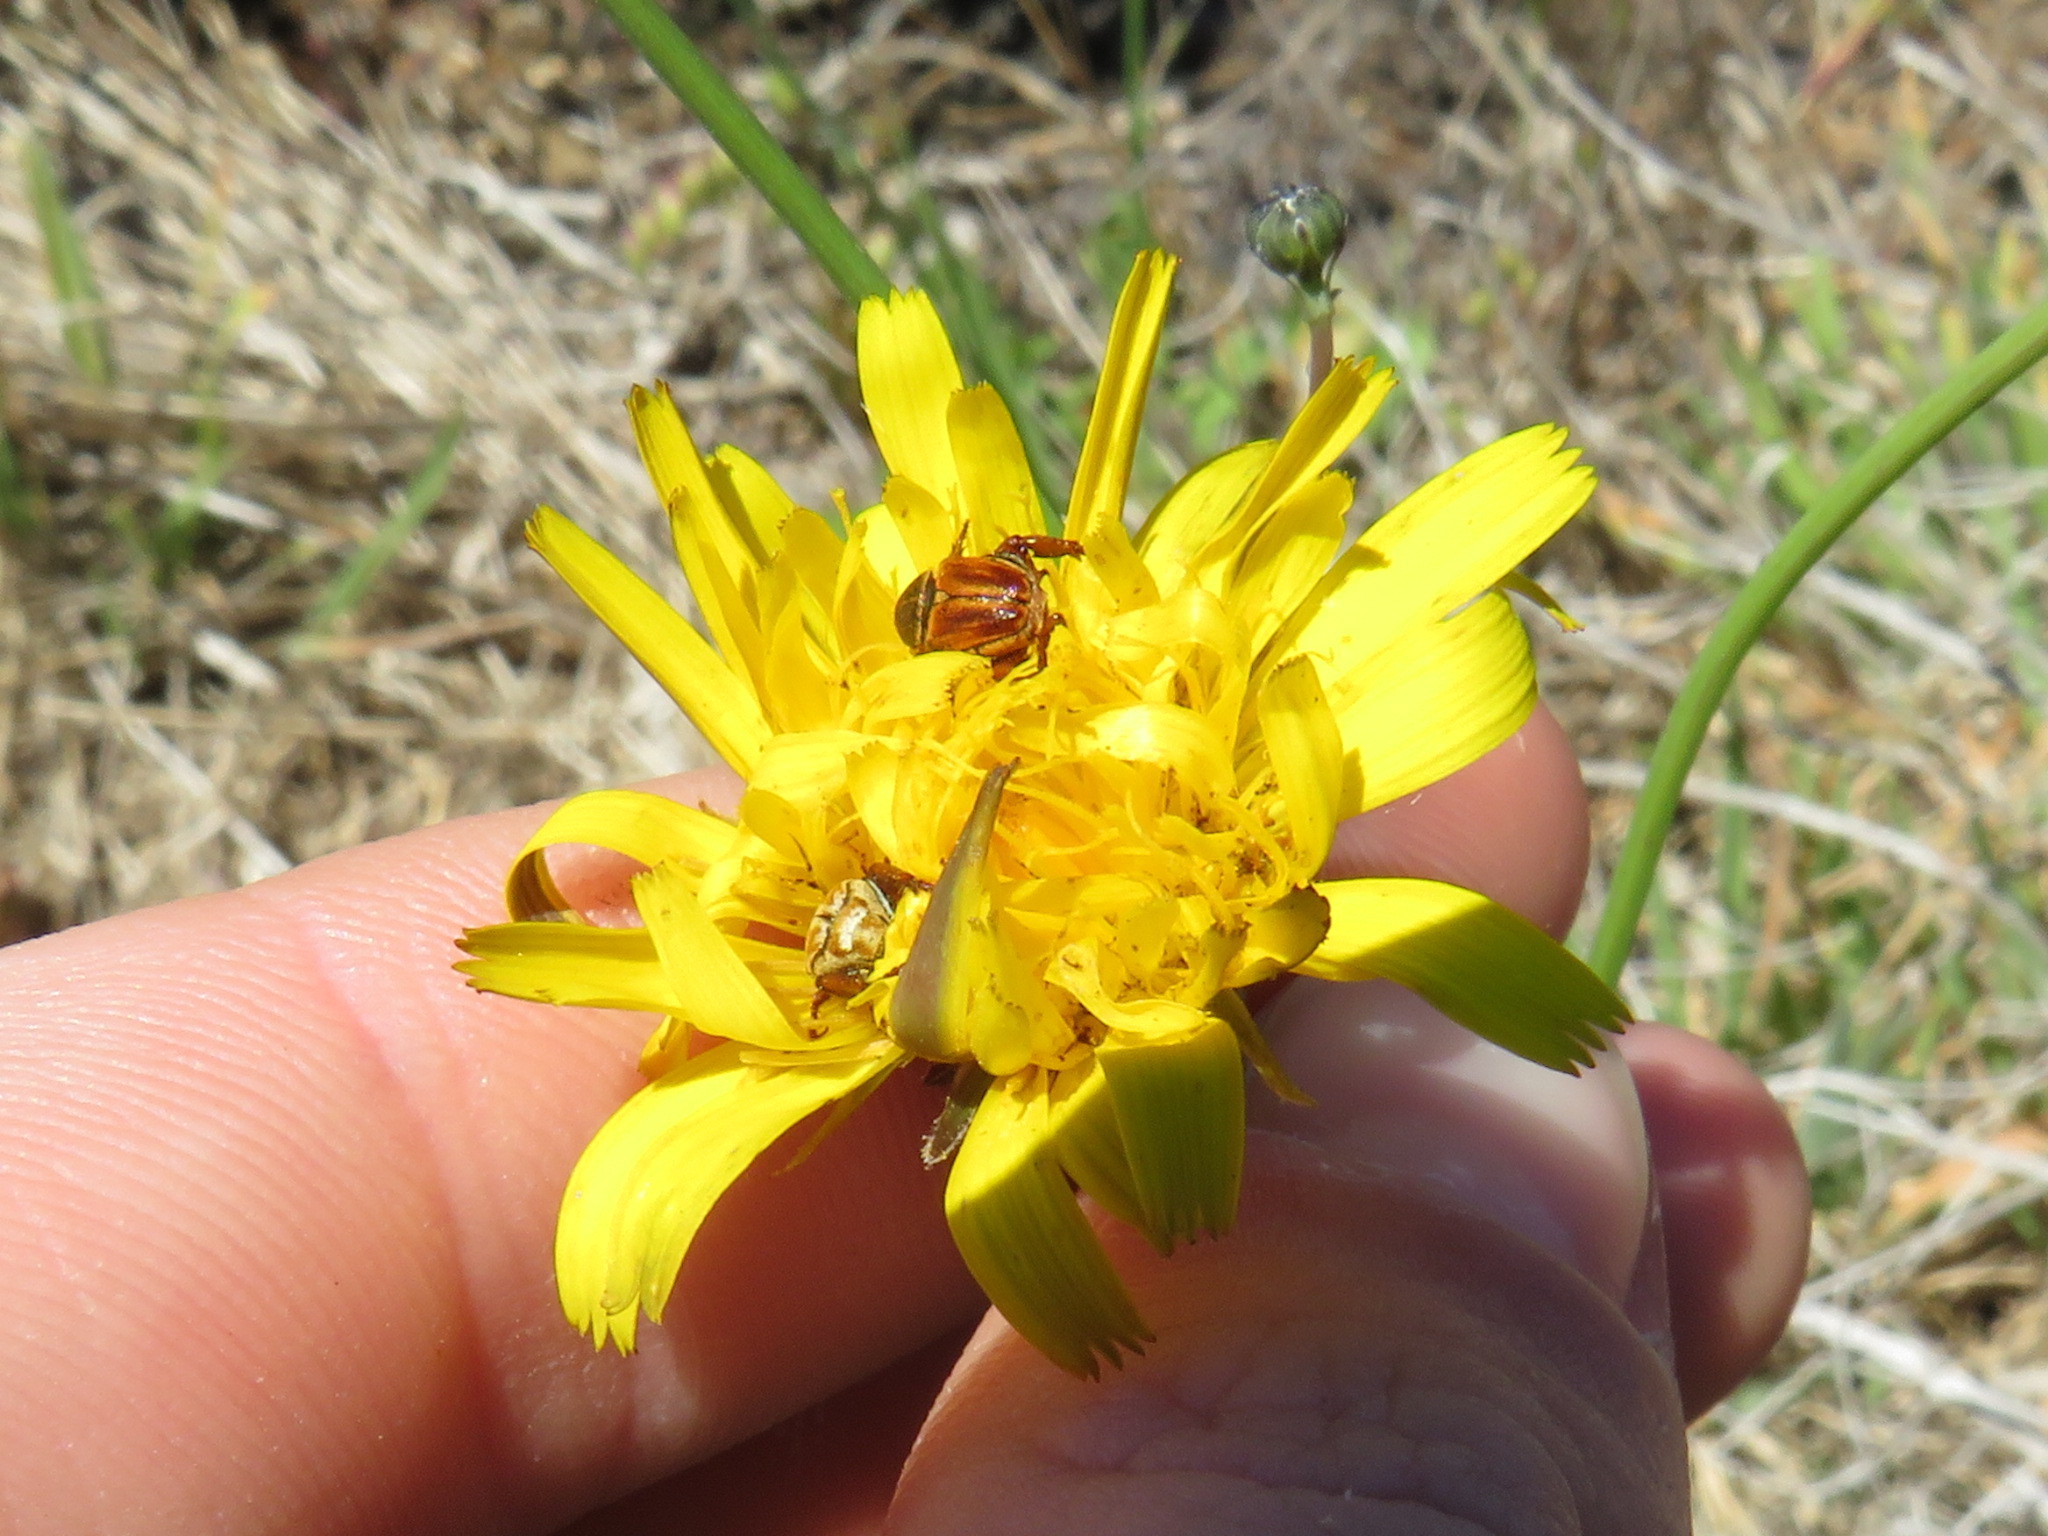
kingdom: Plantae
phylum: Tracheophyta
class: Magnoliopsida
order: Asterales
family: Asteraceae
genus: Hypochaeris
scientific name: Hypochaeris radicata
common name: Flatweed
